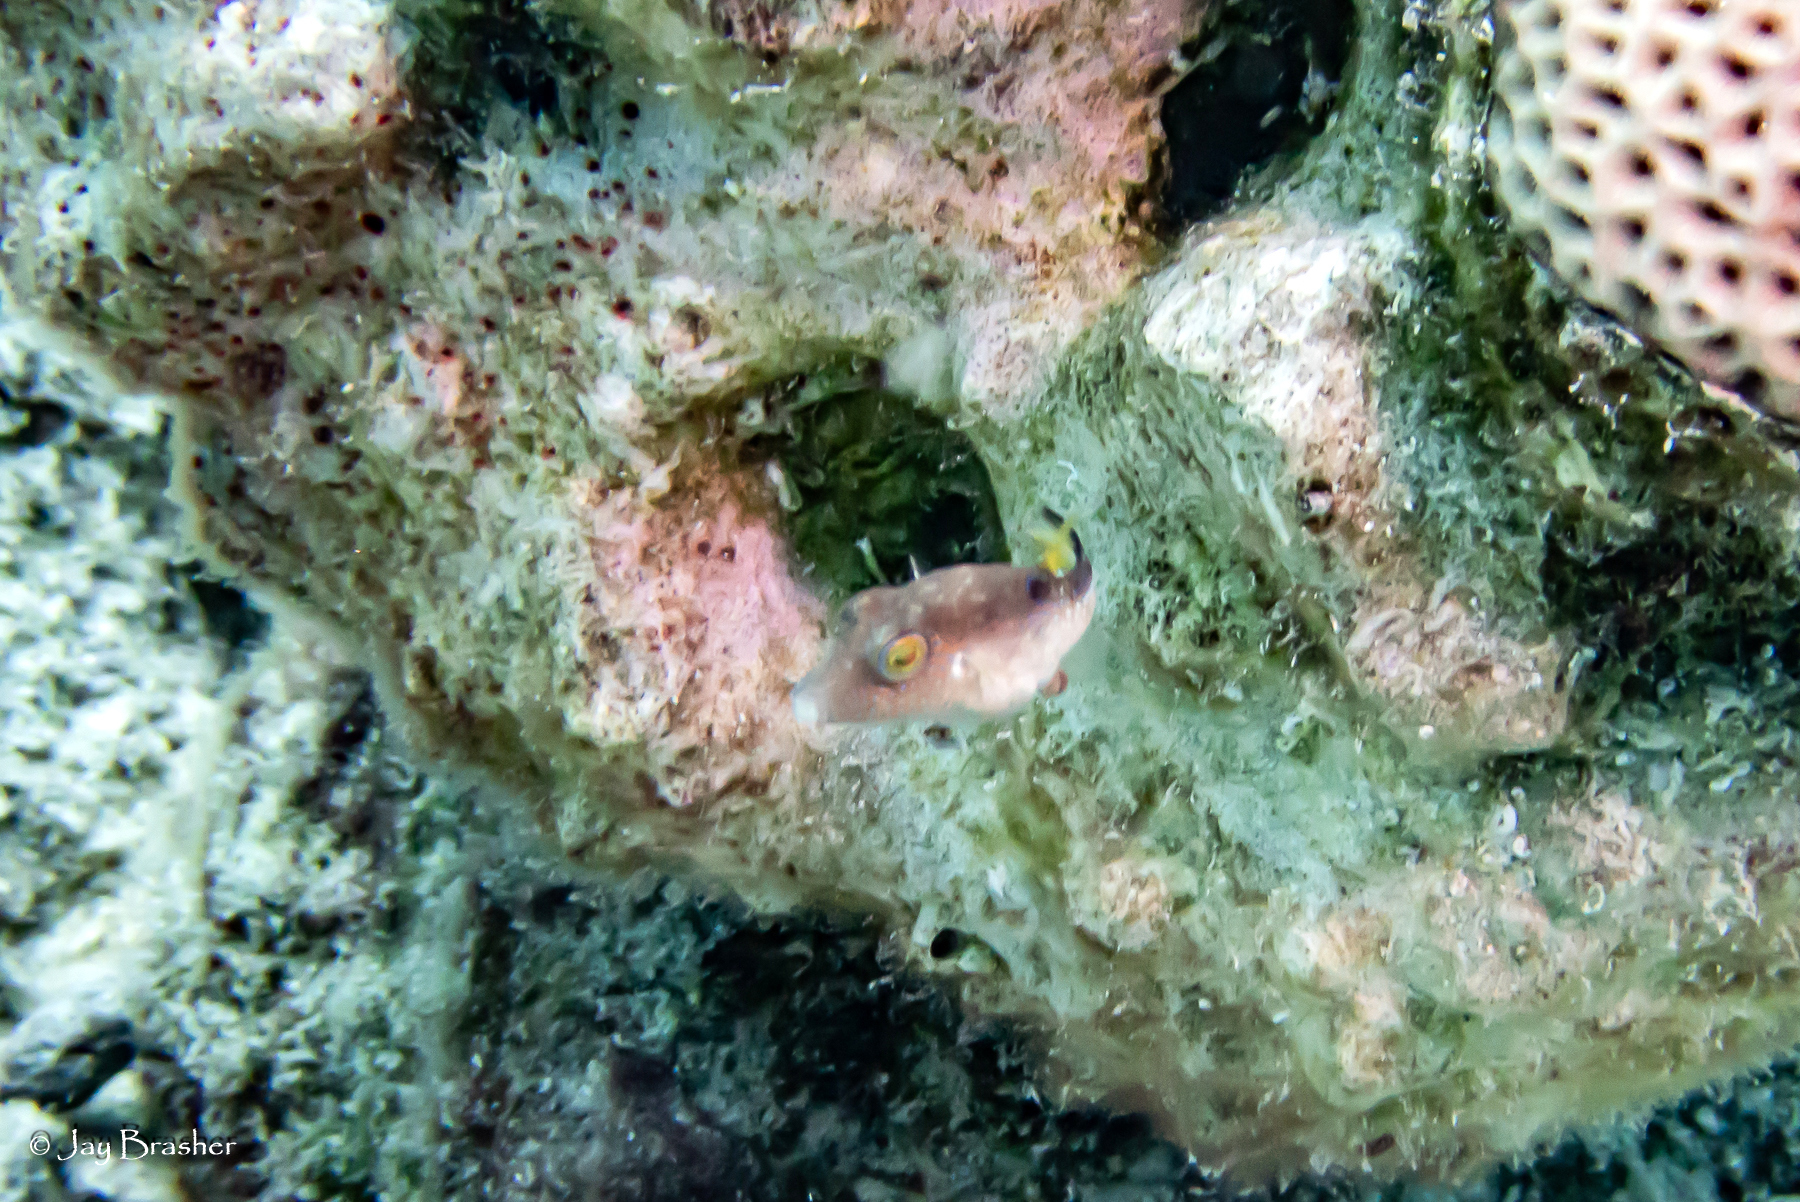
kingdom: Animalia
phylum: Chordata
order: Tetraodontiformes
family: Tetraodontidae
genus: Canthigaster
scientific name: Canthigaster rostrata
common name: Caribbean sharpnose-puffer
